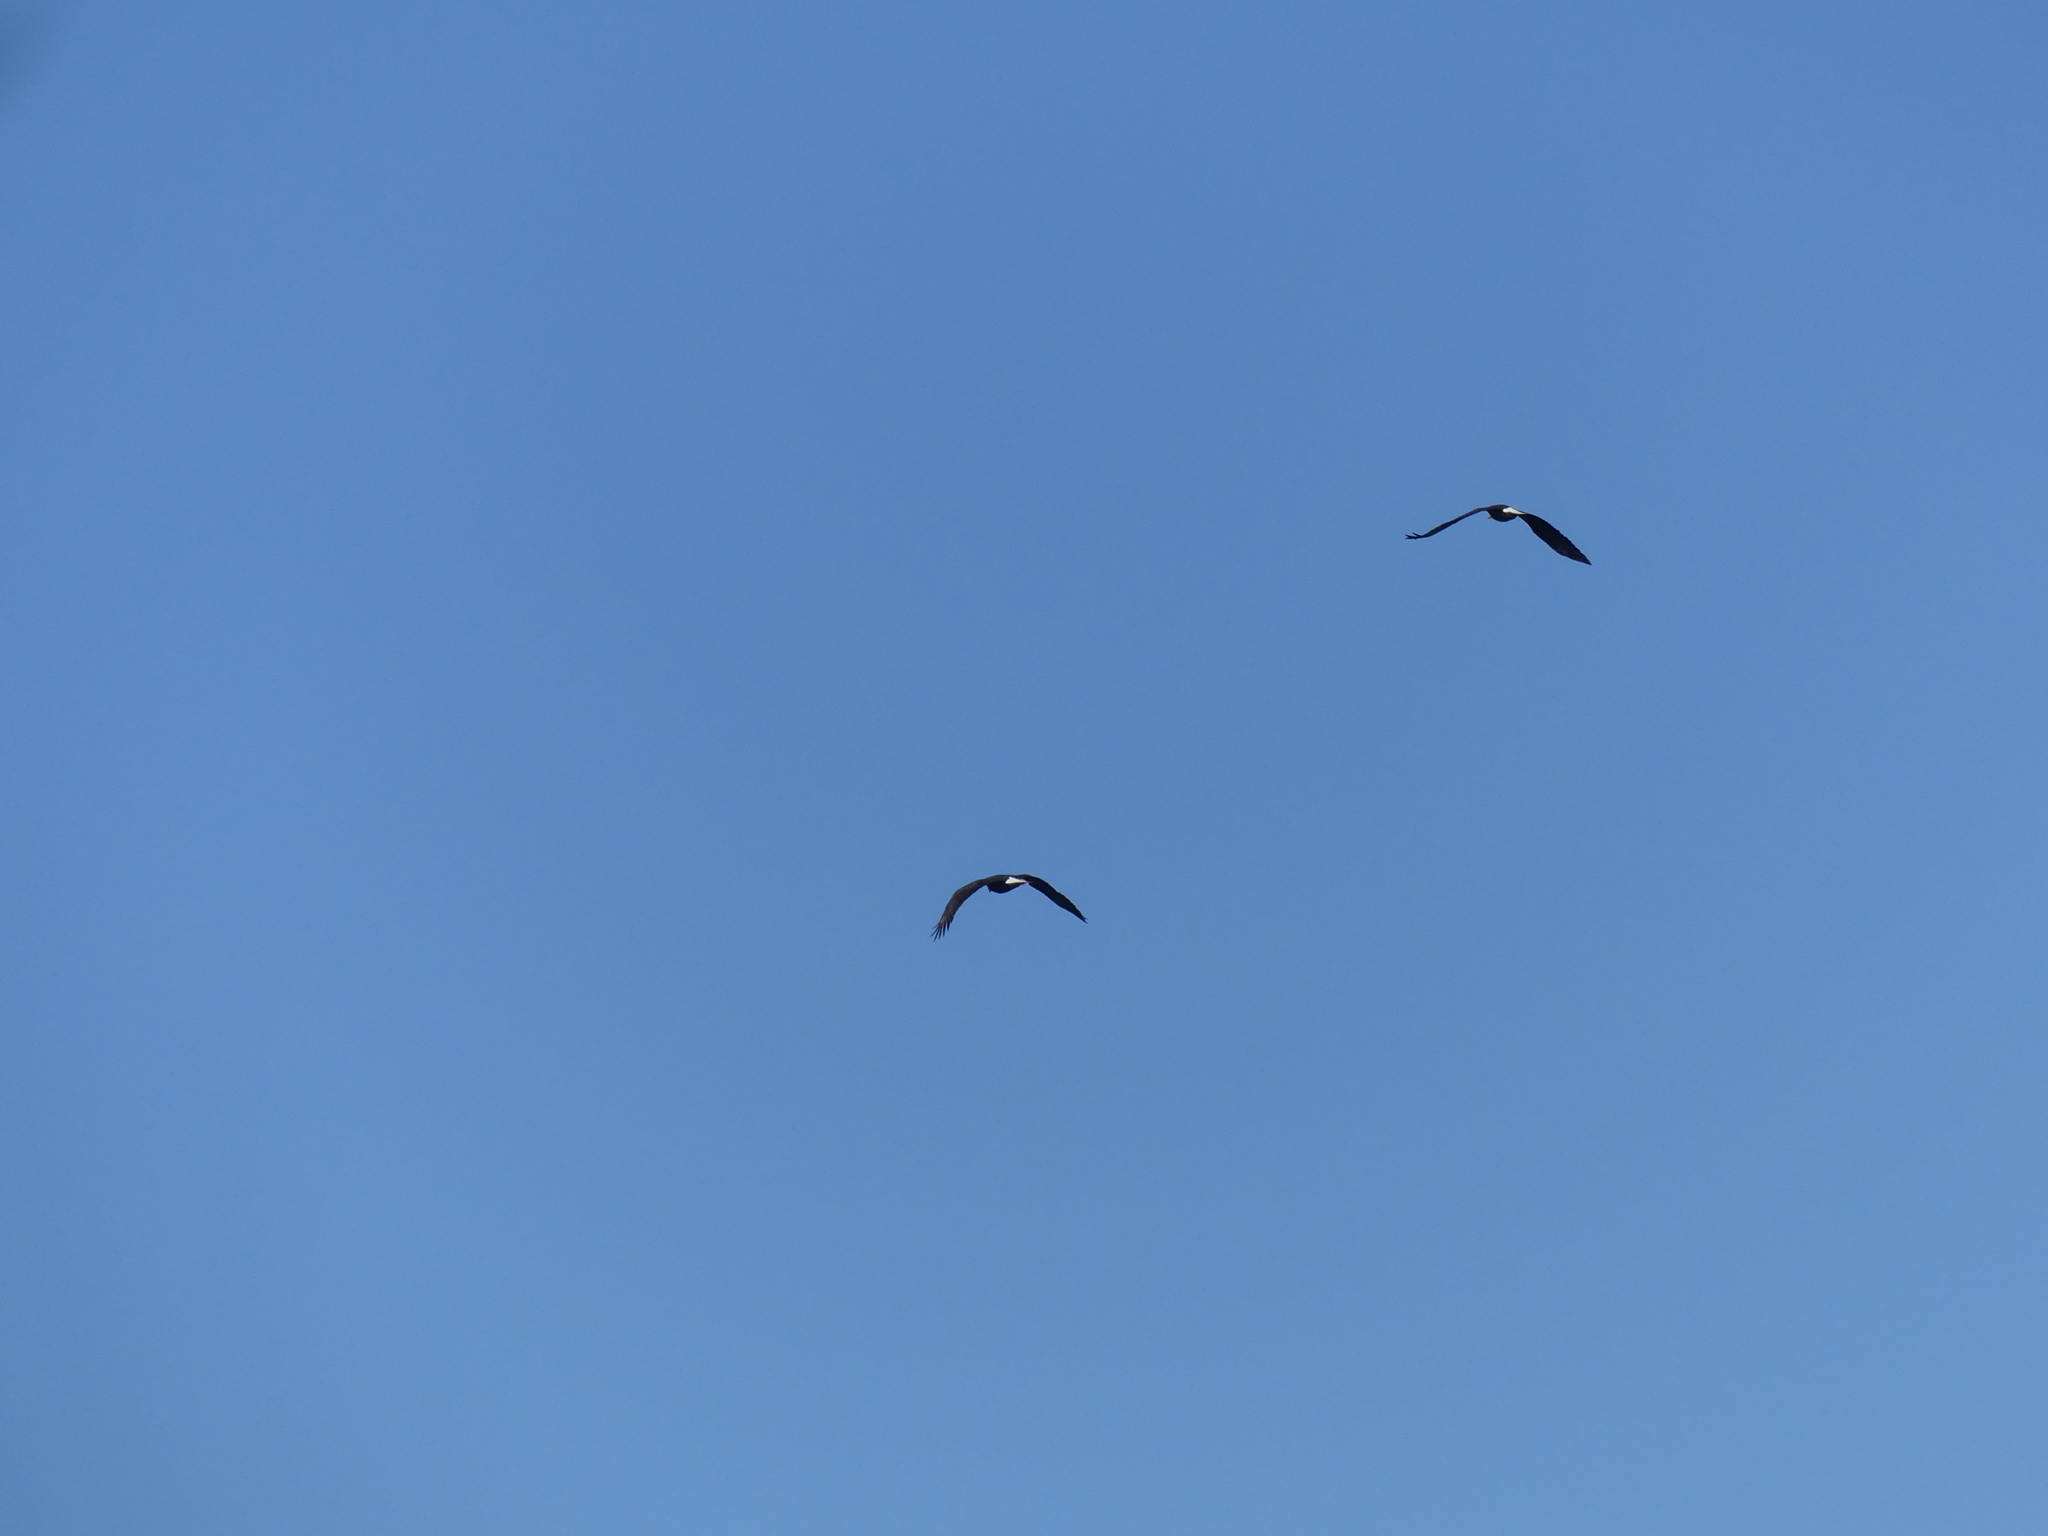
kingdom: Animalia
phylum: Chordata
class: Aves
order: Accipitriformes
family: Accipitridae
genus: Haliaeetus
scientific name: Haliaeetus leucocephalus
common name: Bald eagle
